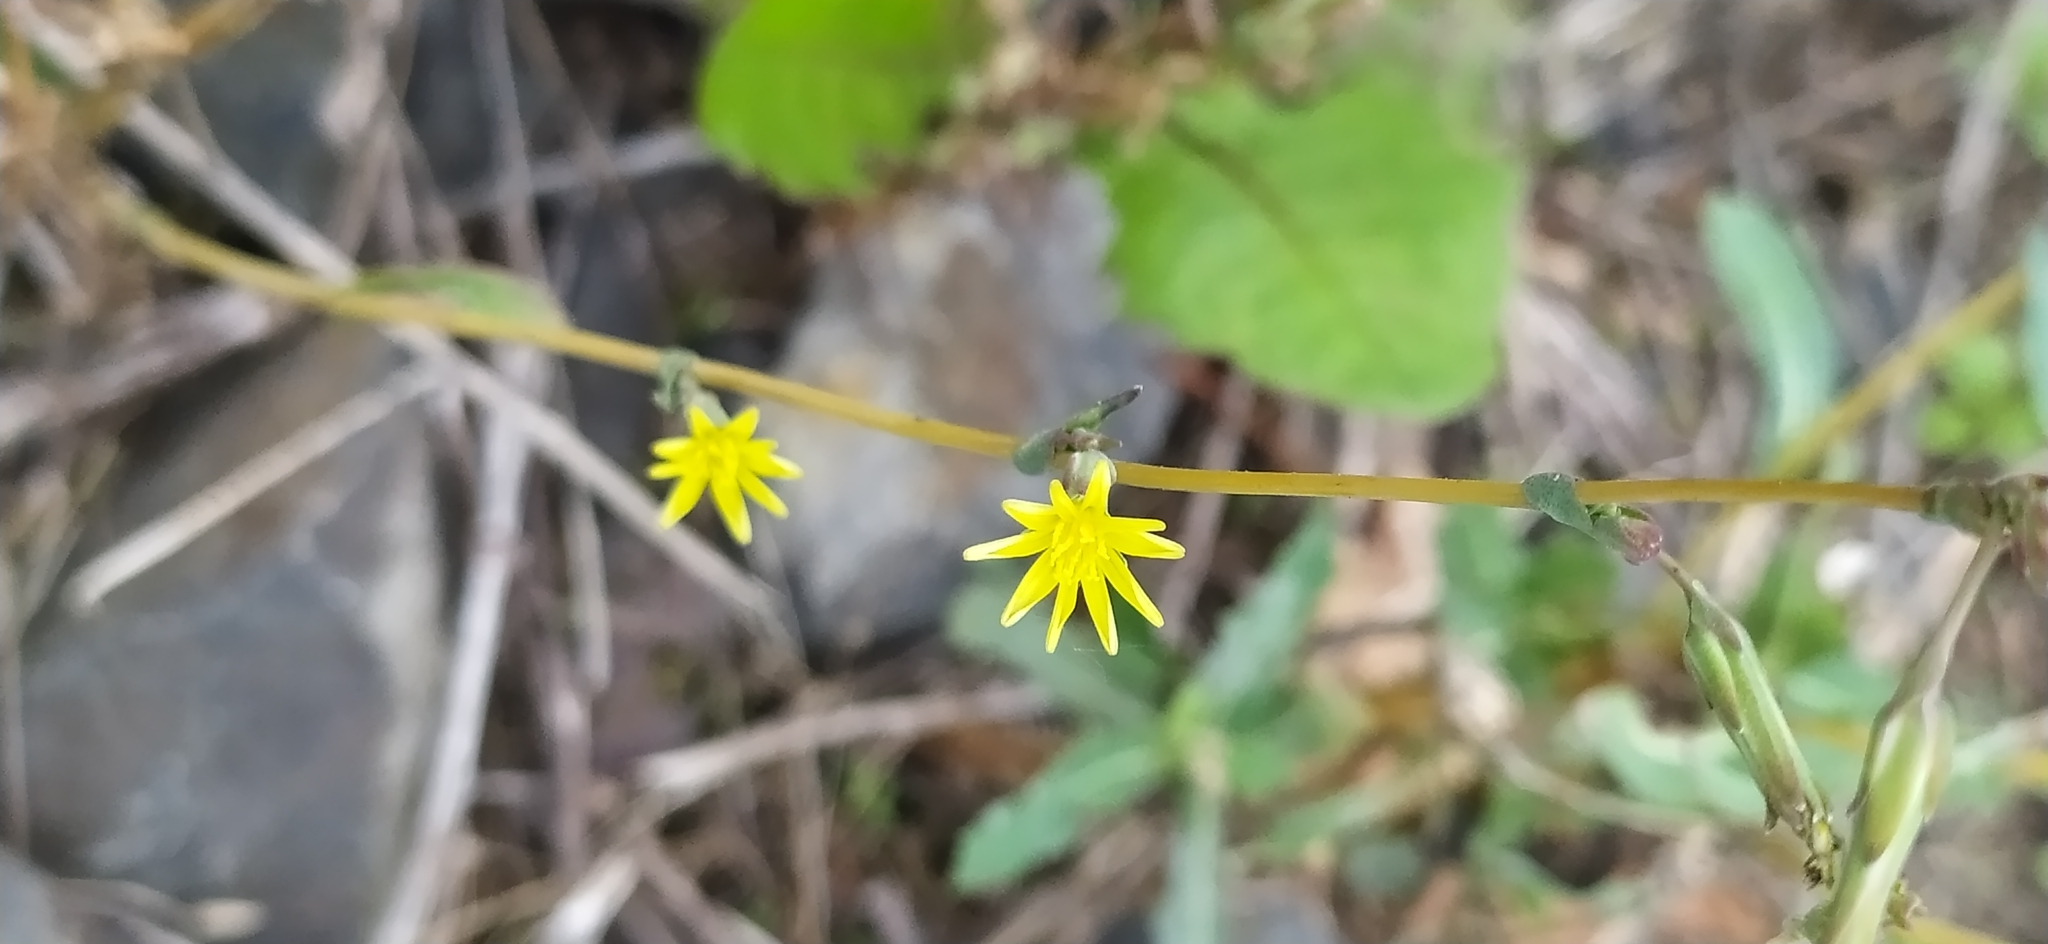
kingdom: Plantae
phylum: Tracheophyta
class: Magnoliopsida
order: Asterales
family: Asteraceae
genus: Lactuca
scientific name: Lactuca serriola
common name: Prickly lettuce
